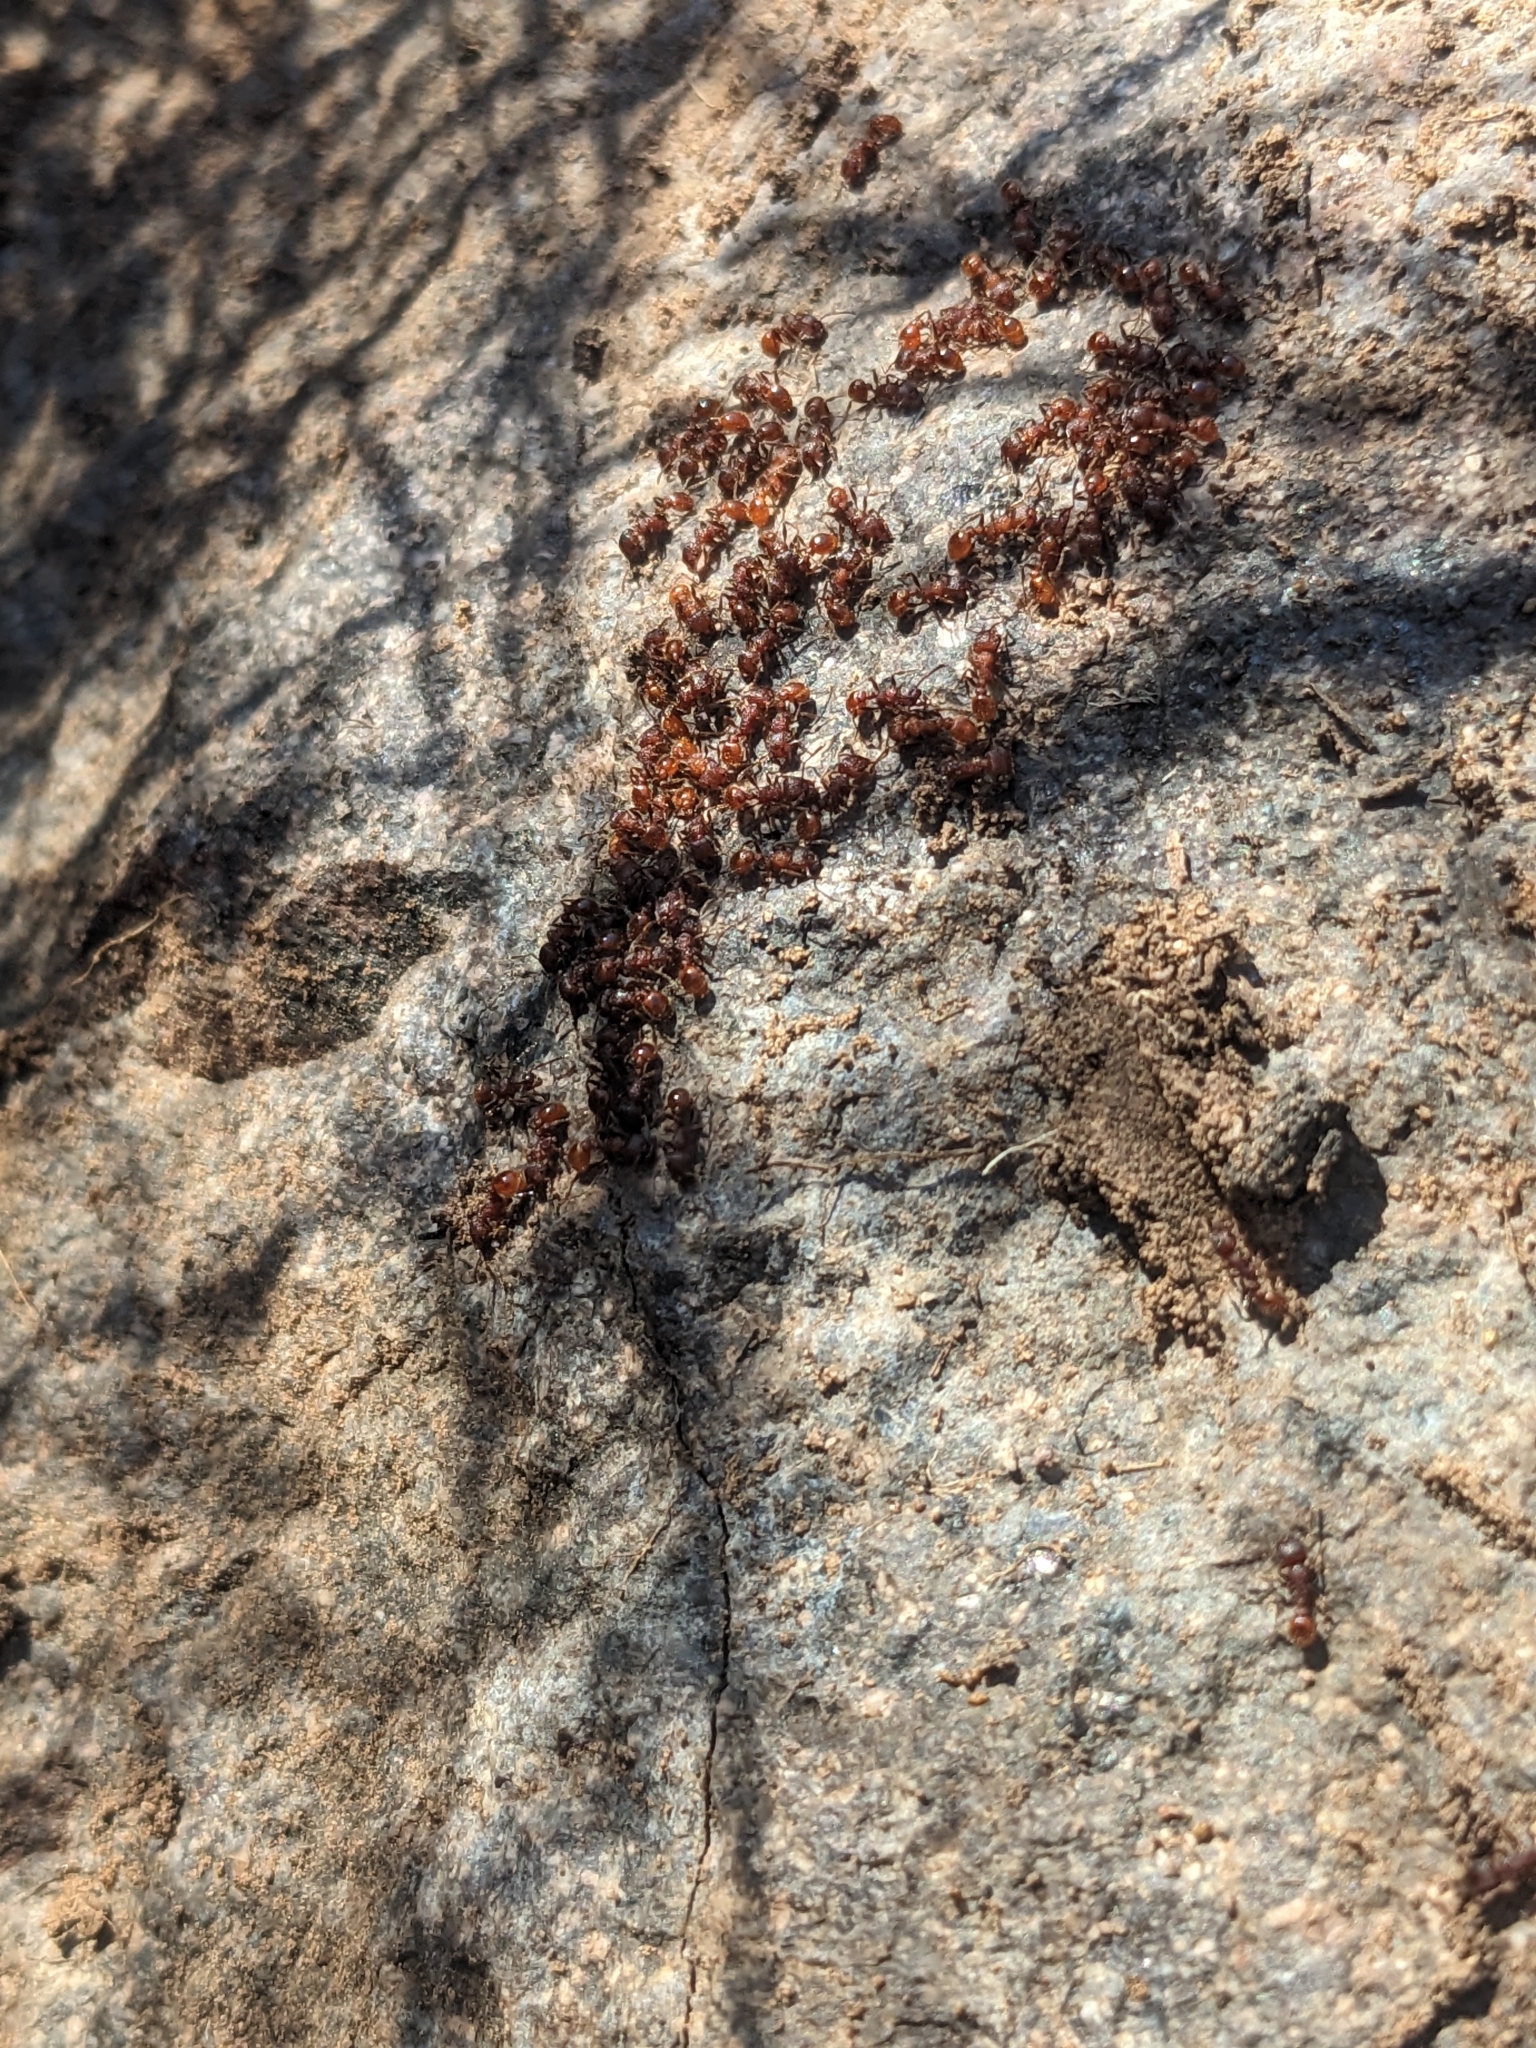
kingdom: Animalia
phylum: Arthropoda
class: Insecta
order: Hymenoptera
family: Formicidae
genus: Tetramorium
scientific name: Tetramorium spinosum
